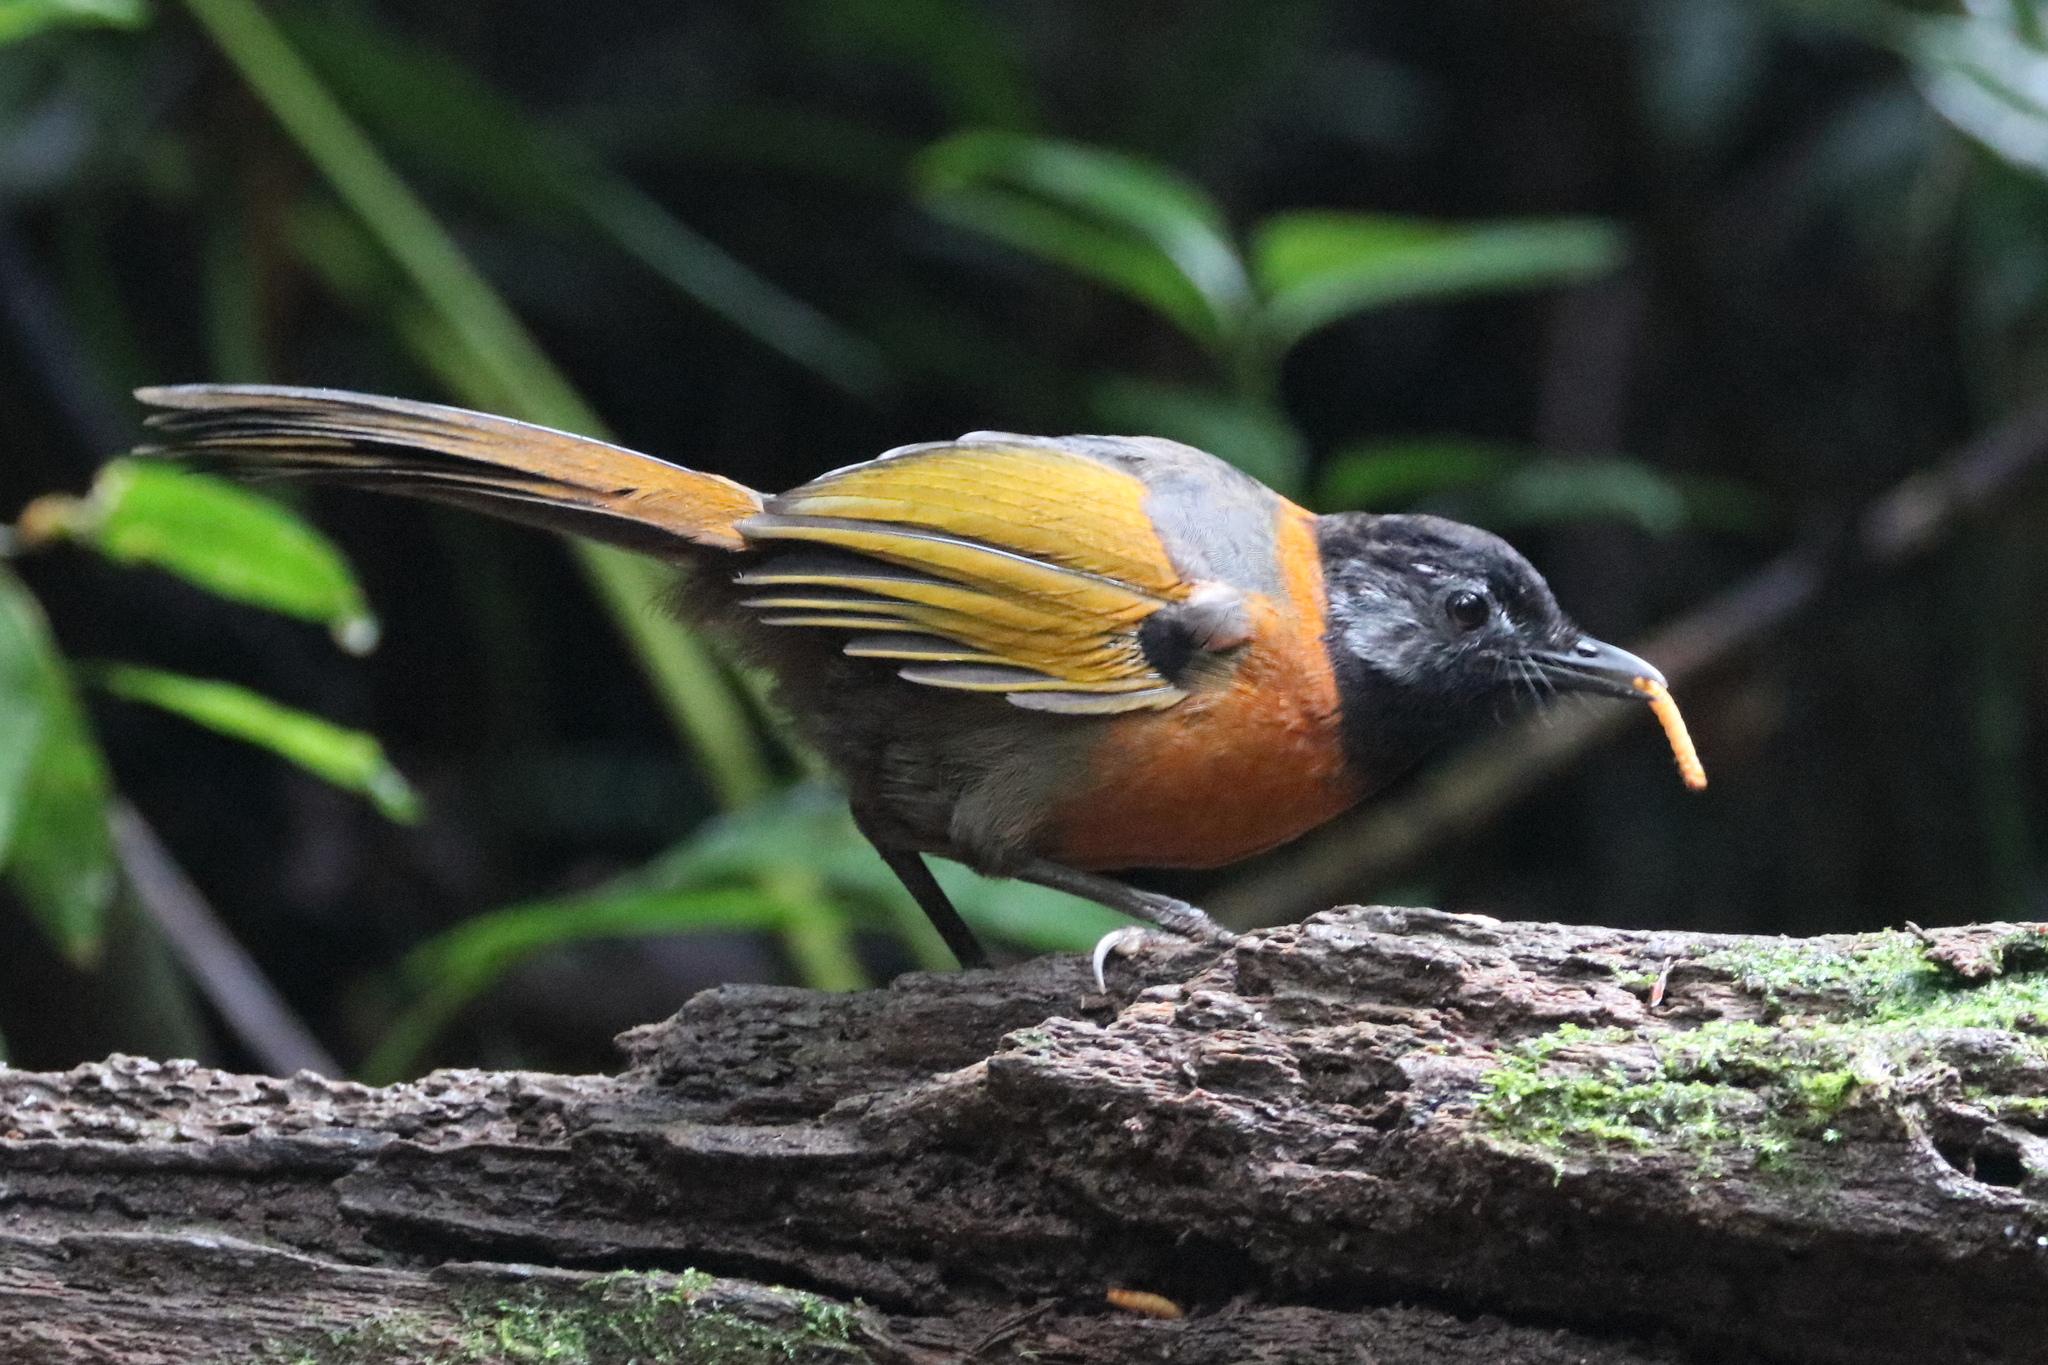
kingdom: Animalia
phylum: Chordata
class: Aves
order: Passeriformes
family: Leiothrichidae
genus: Trochalopteron
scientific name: Trochalopteron yersini
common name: Collared laughingthrush
